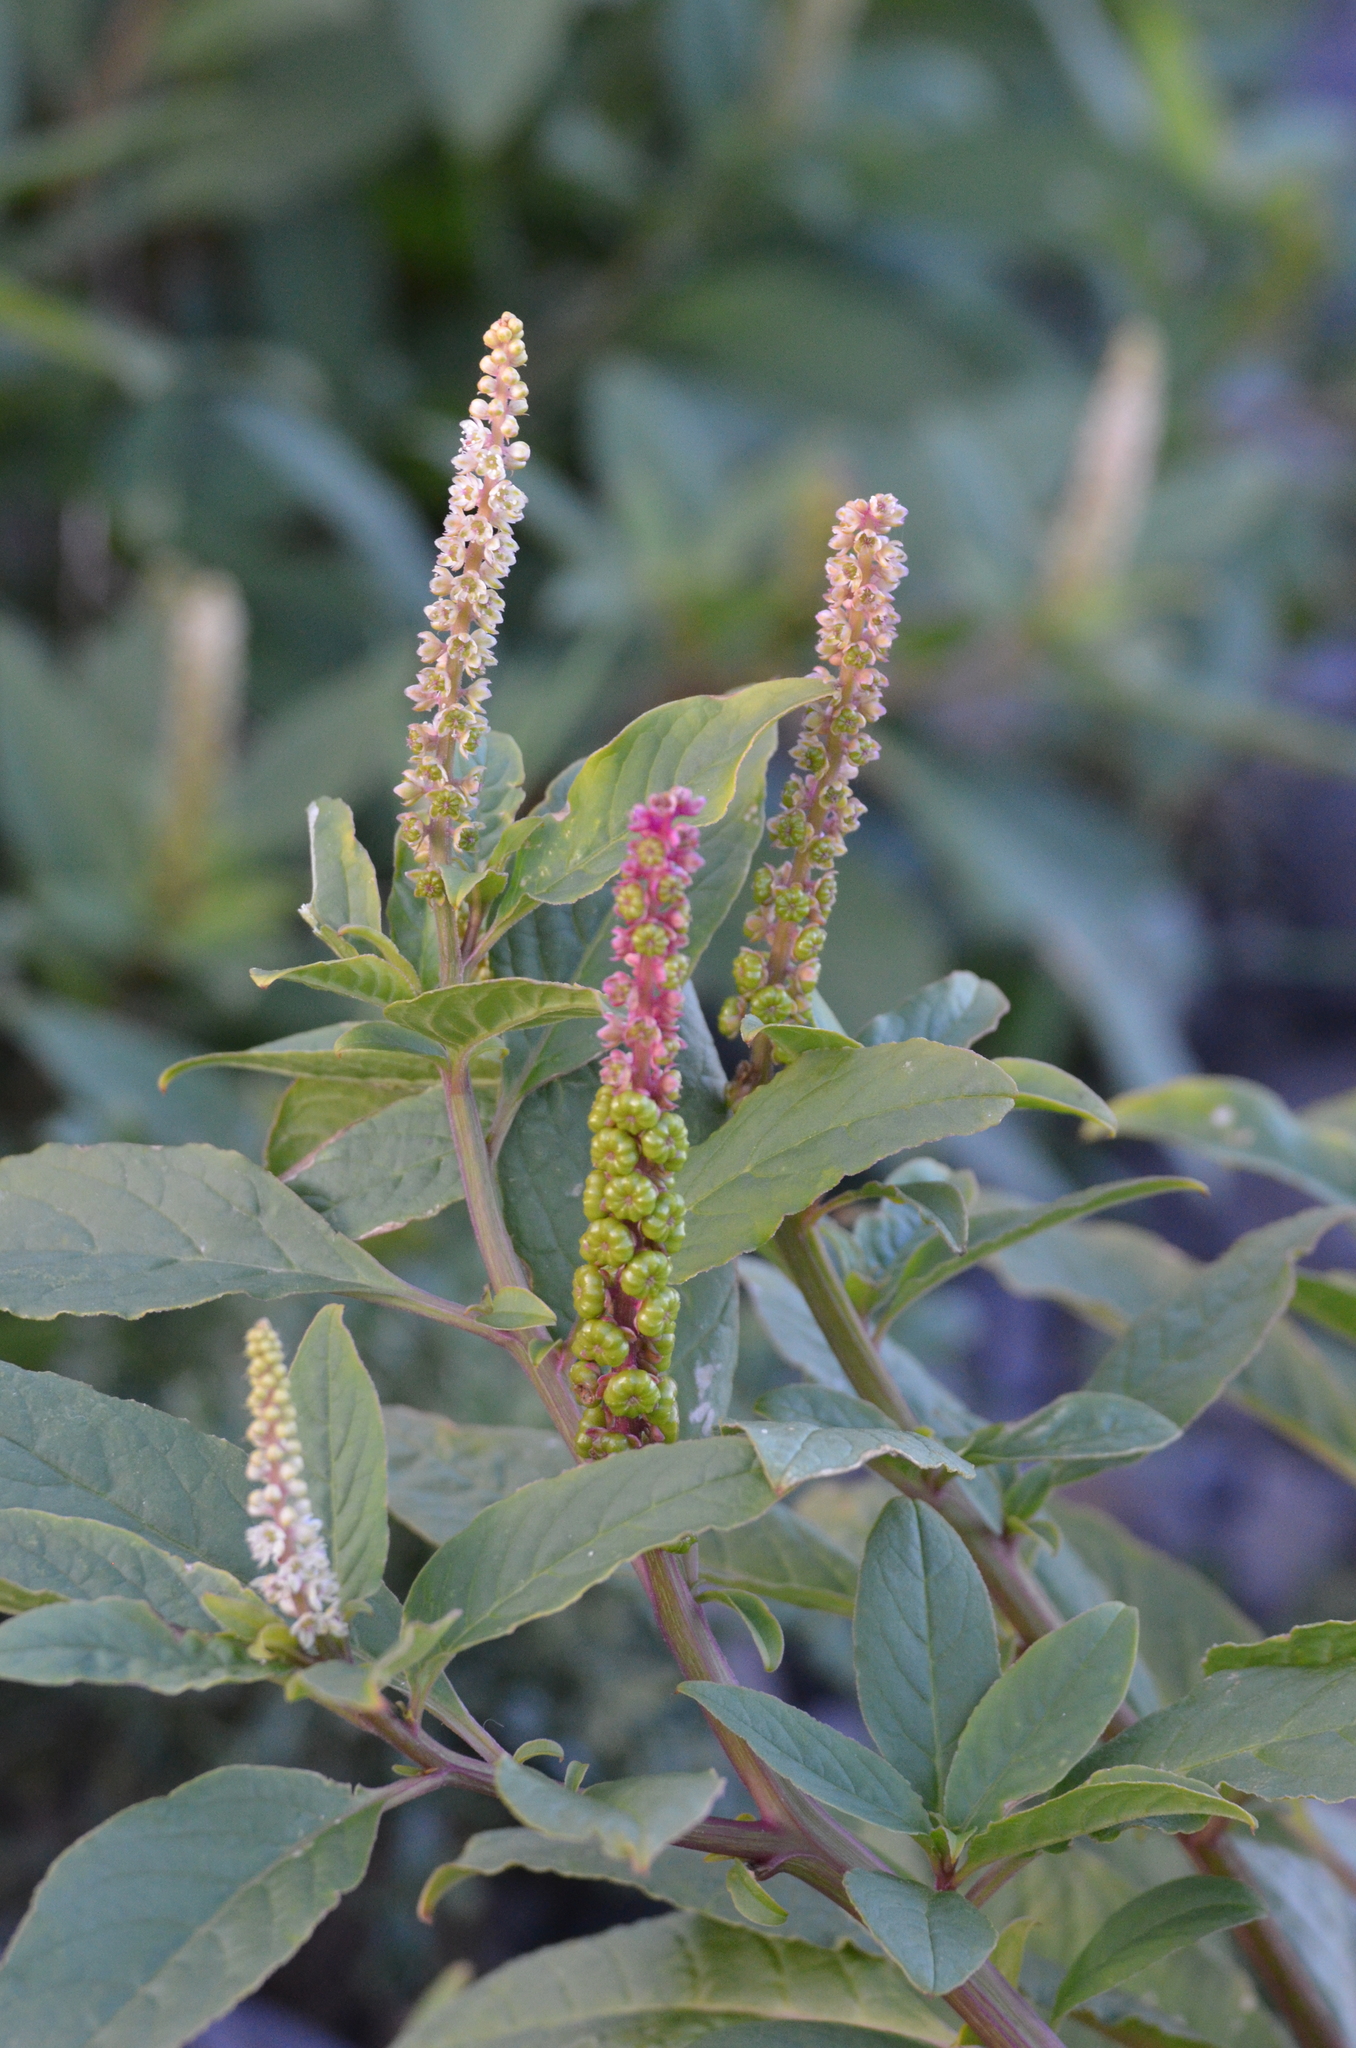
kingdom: Plantae
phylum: Tracheophyta
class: Magnoliopsida
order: Caryophyllales
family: Phytolaccaceae
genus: Phytolacca
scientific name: Phytolacca icosandra
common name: Button pokeweed
